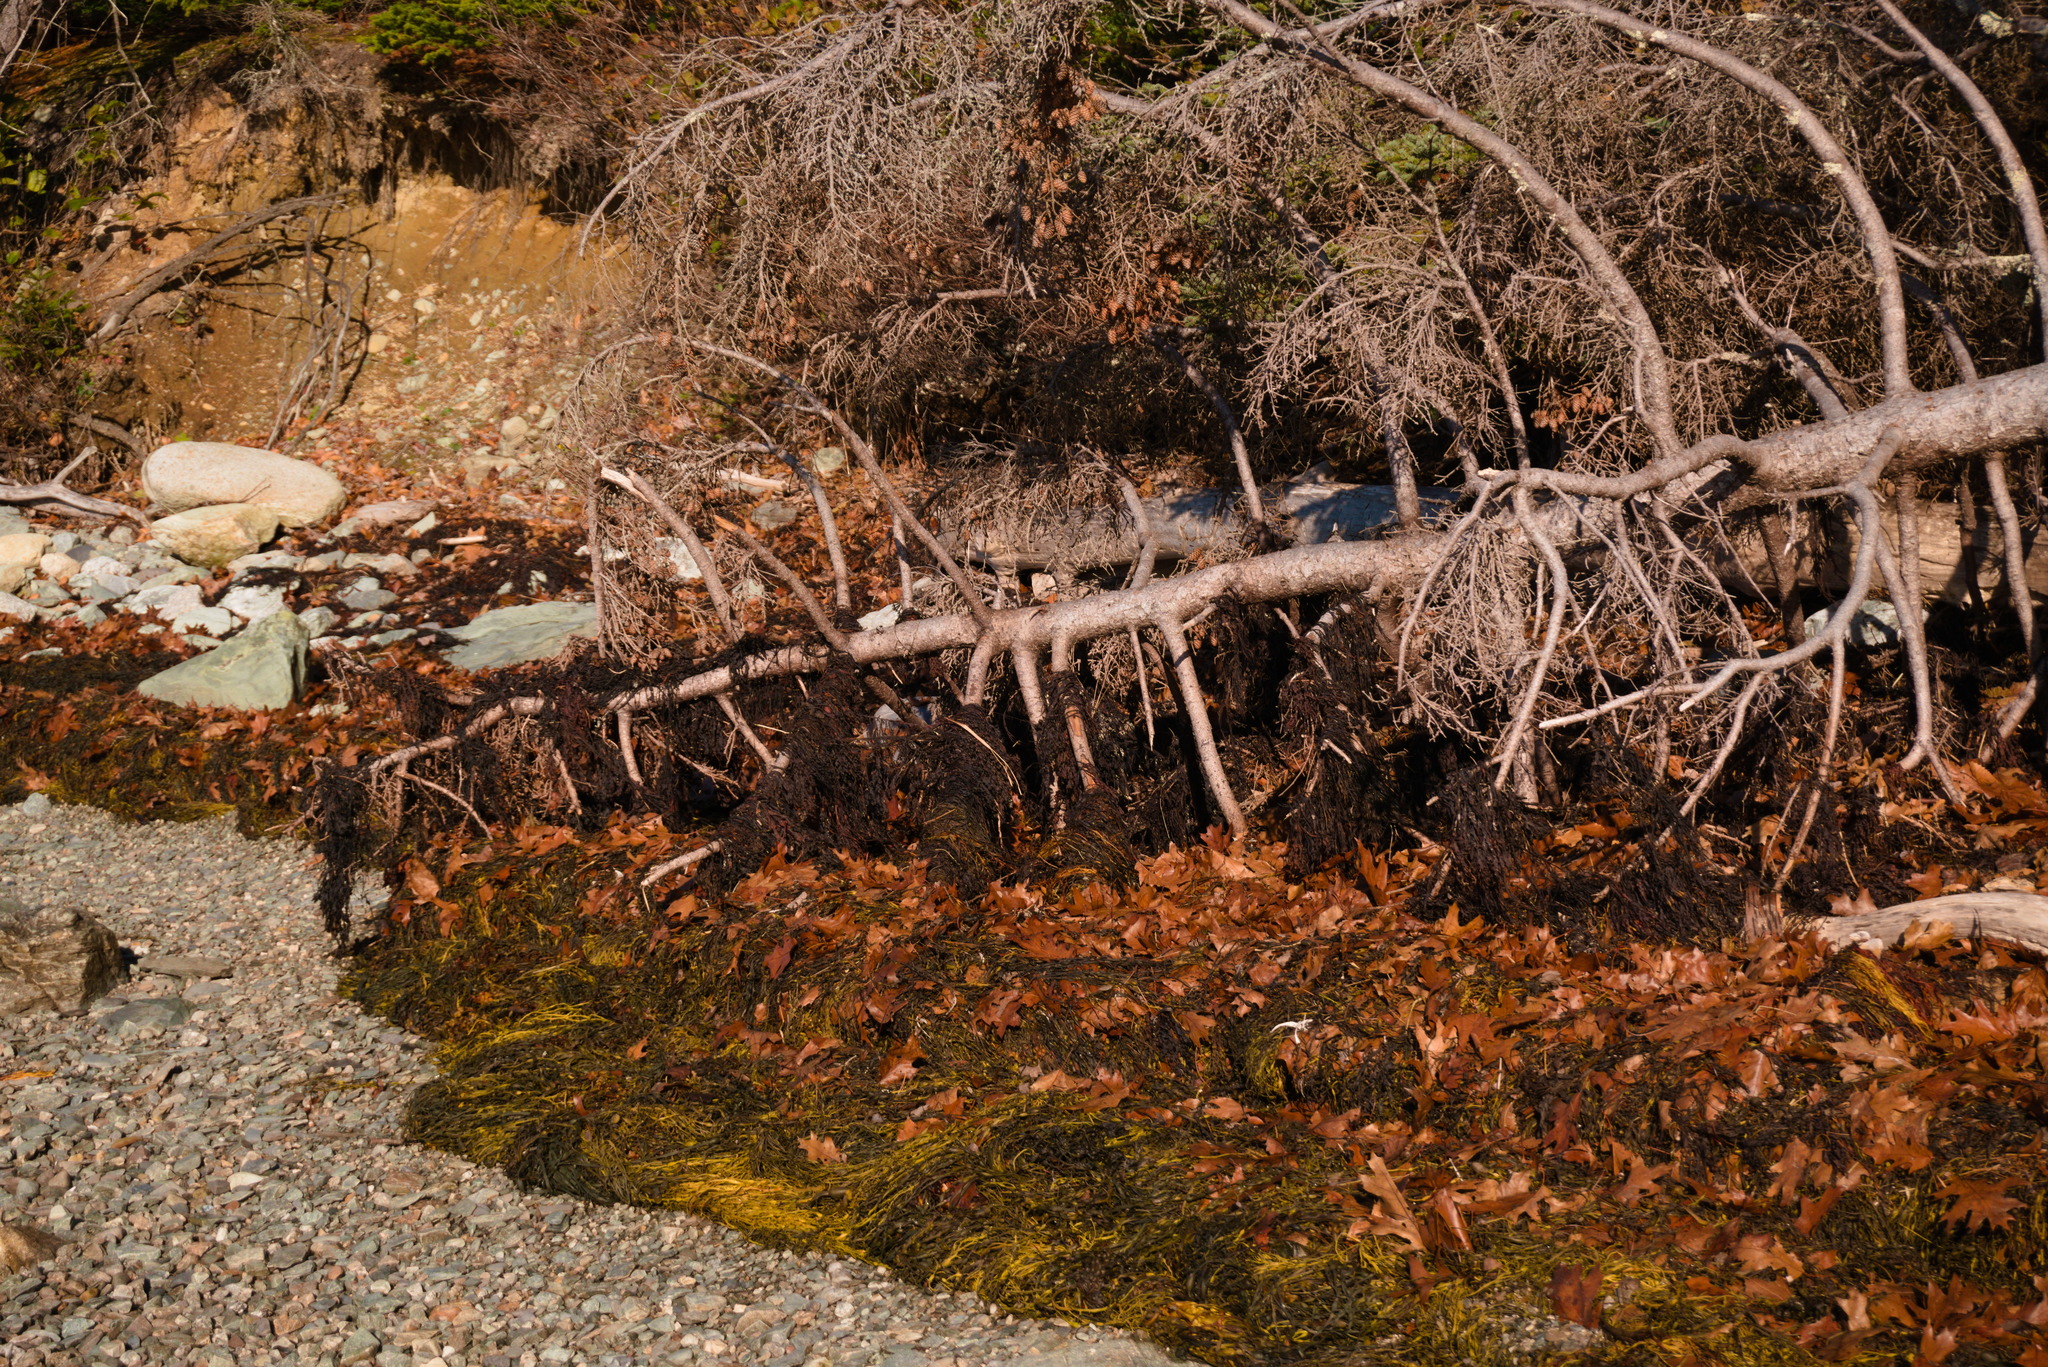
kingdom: Chromista
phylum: Ochrophyta
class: Phaeophyceae
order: Fucales
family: Fucaceae
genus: Ascophyllum
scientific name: Ascophyllum nodosum
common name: Knotted wrack
